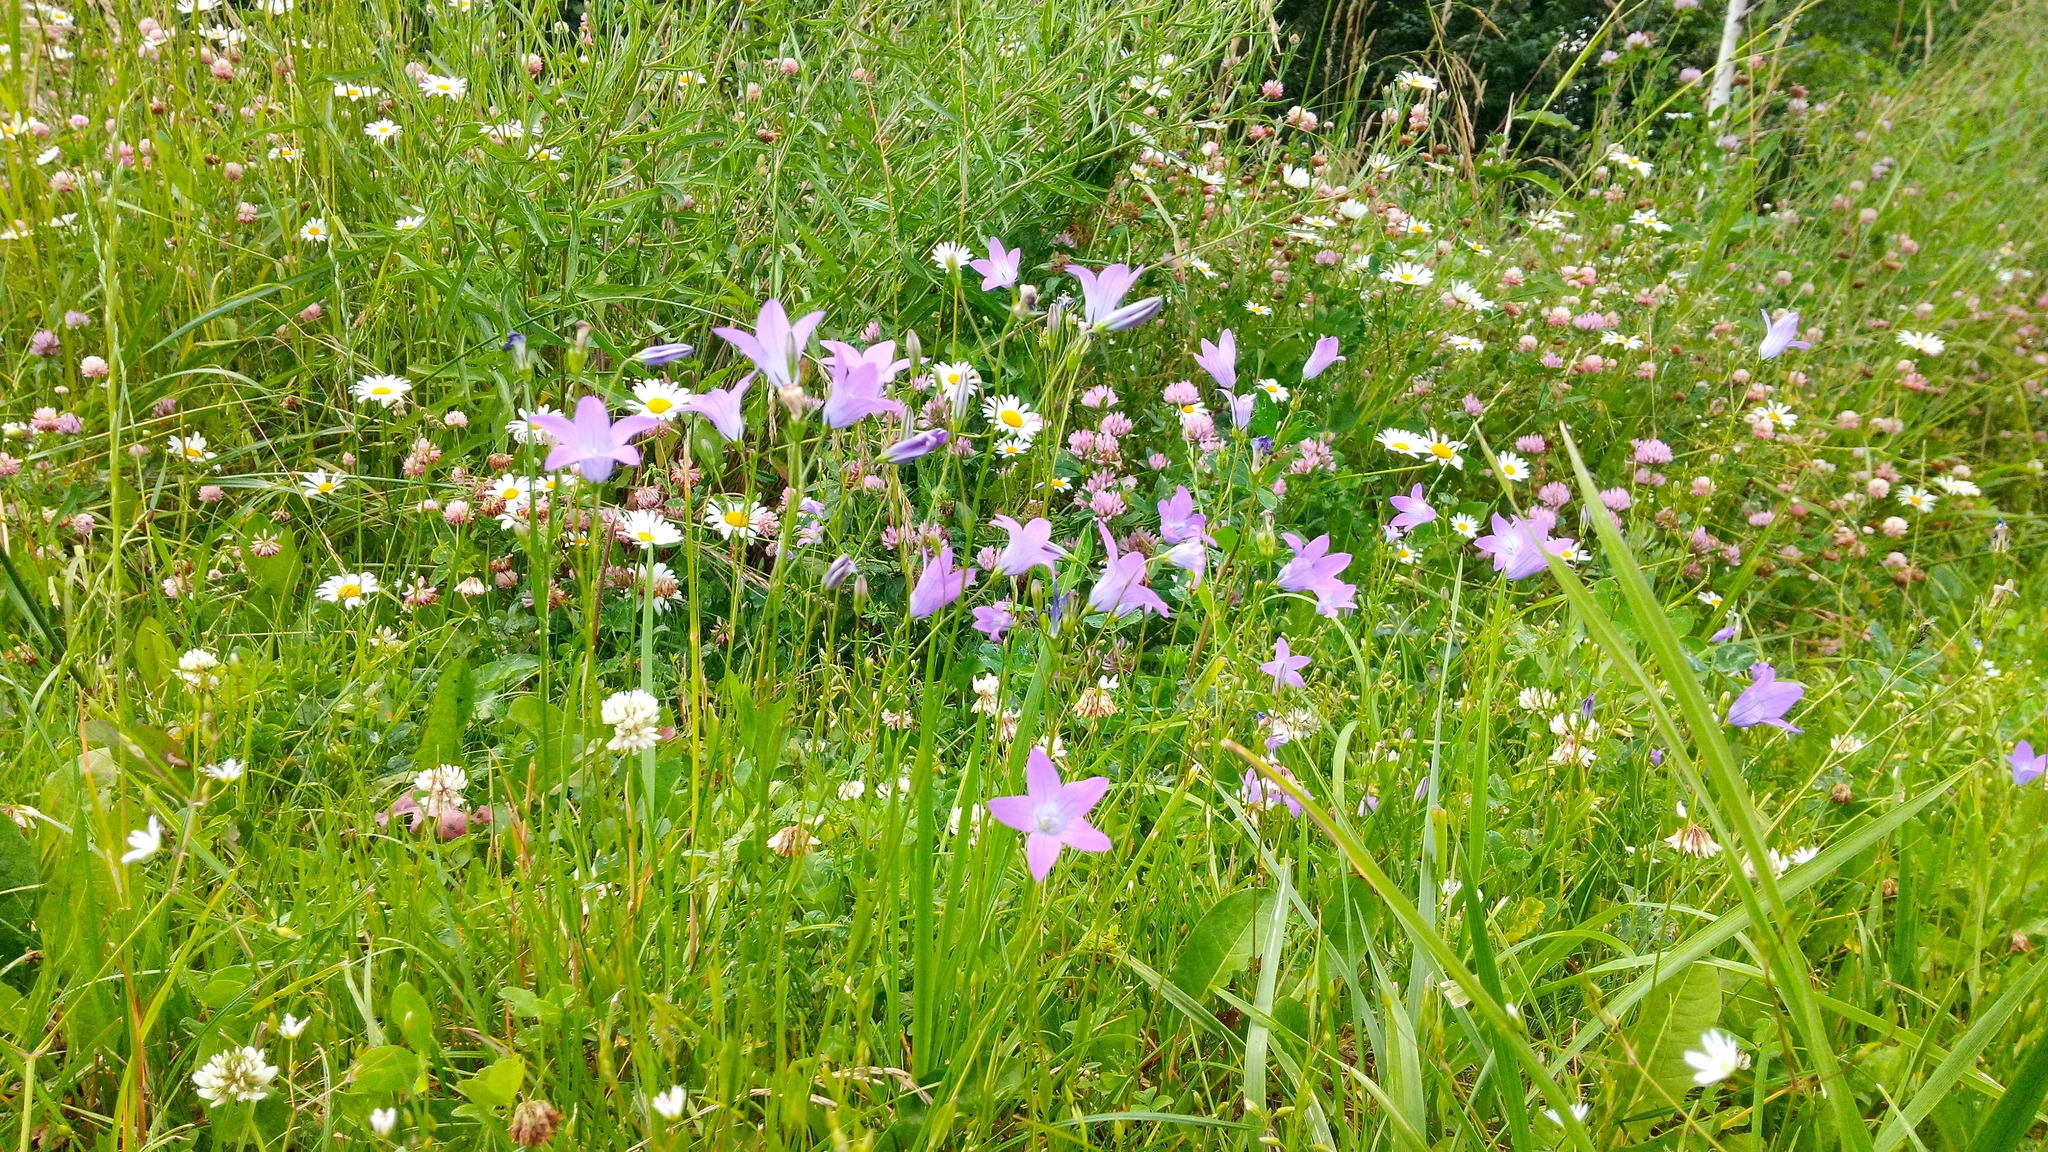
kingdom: Plantae
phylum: Tracheophyta
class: Magnoliopsida
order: Asterales
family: Campanulaceae
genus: Campanula
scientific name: Campanula patula
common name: Spreading bellflower
